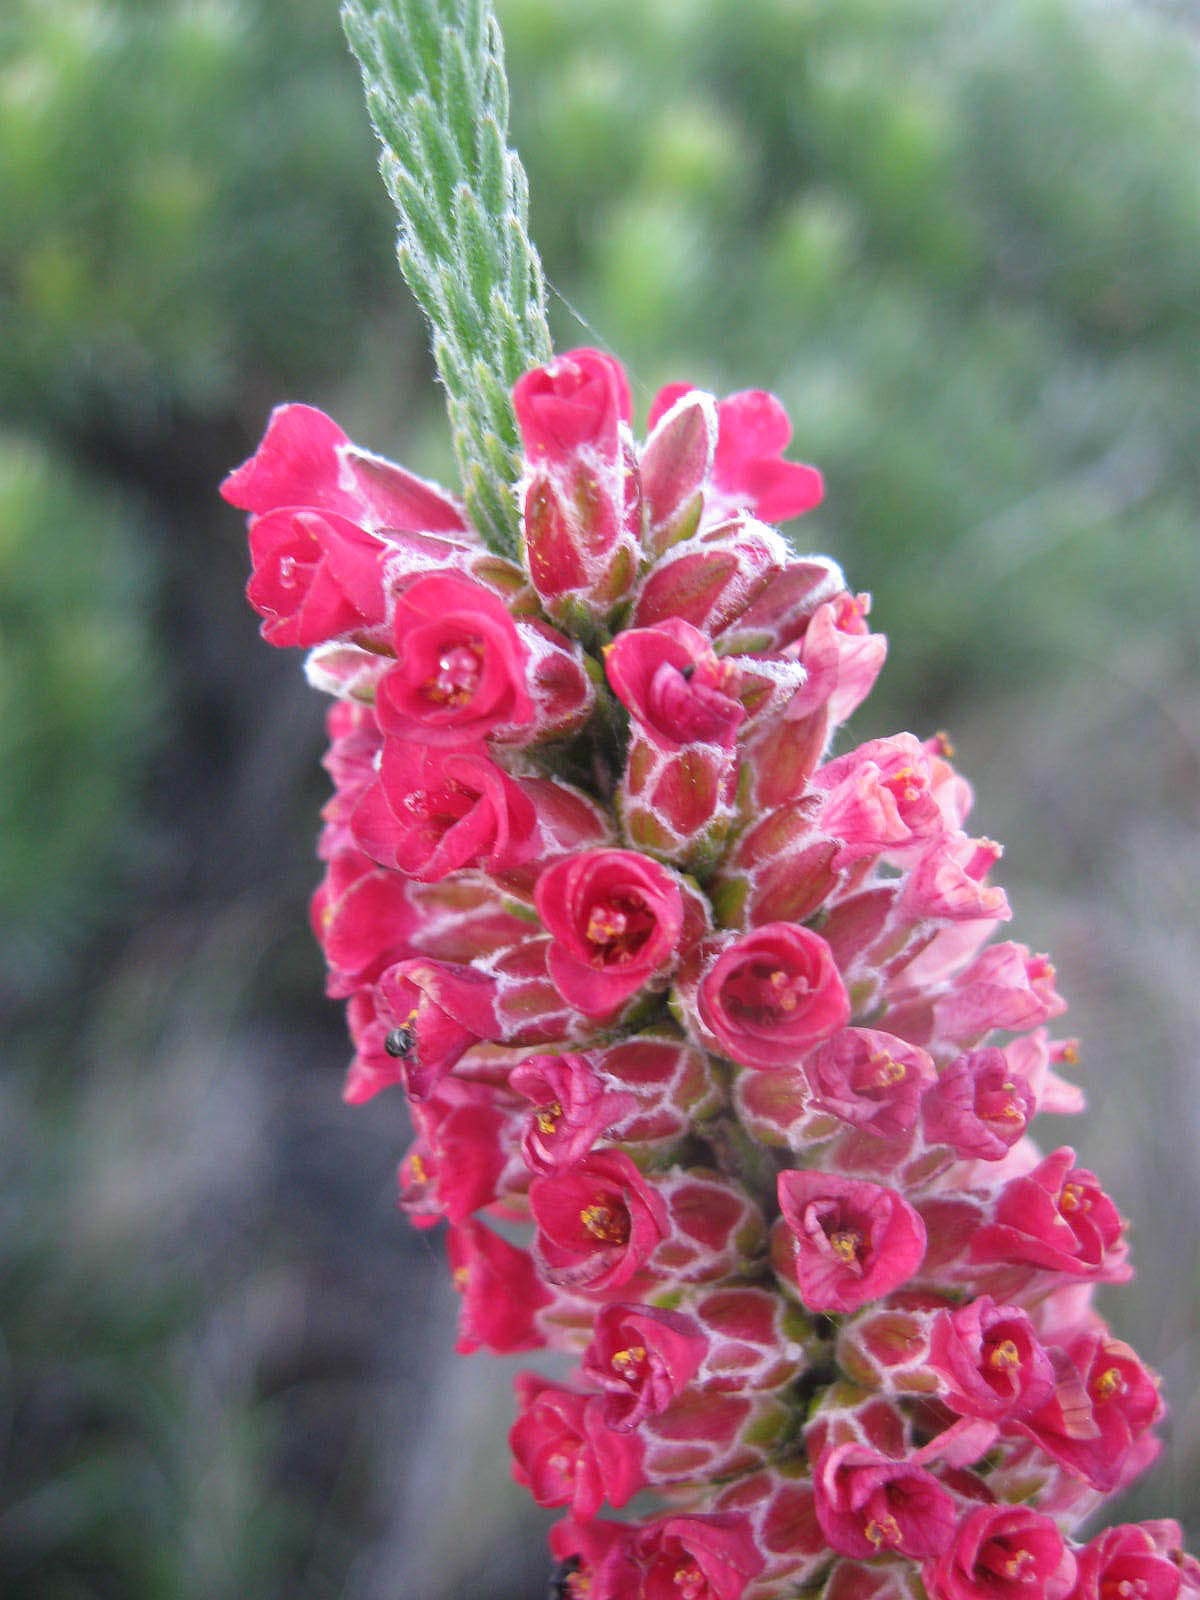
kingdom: Plantae
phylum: Tracheophyta
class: Magnoliopsida
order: Bruniales
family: Bruniaceae
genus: Audouinia
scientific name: Audouinia capitata
